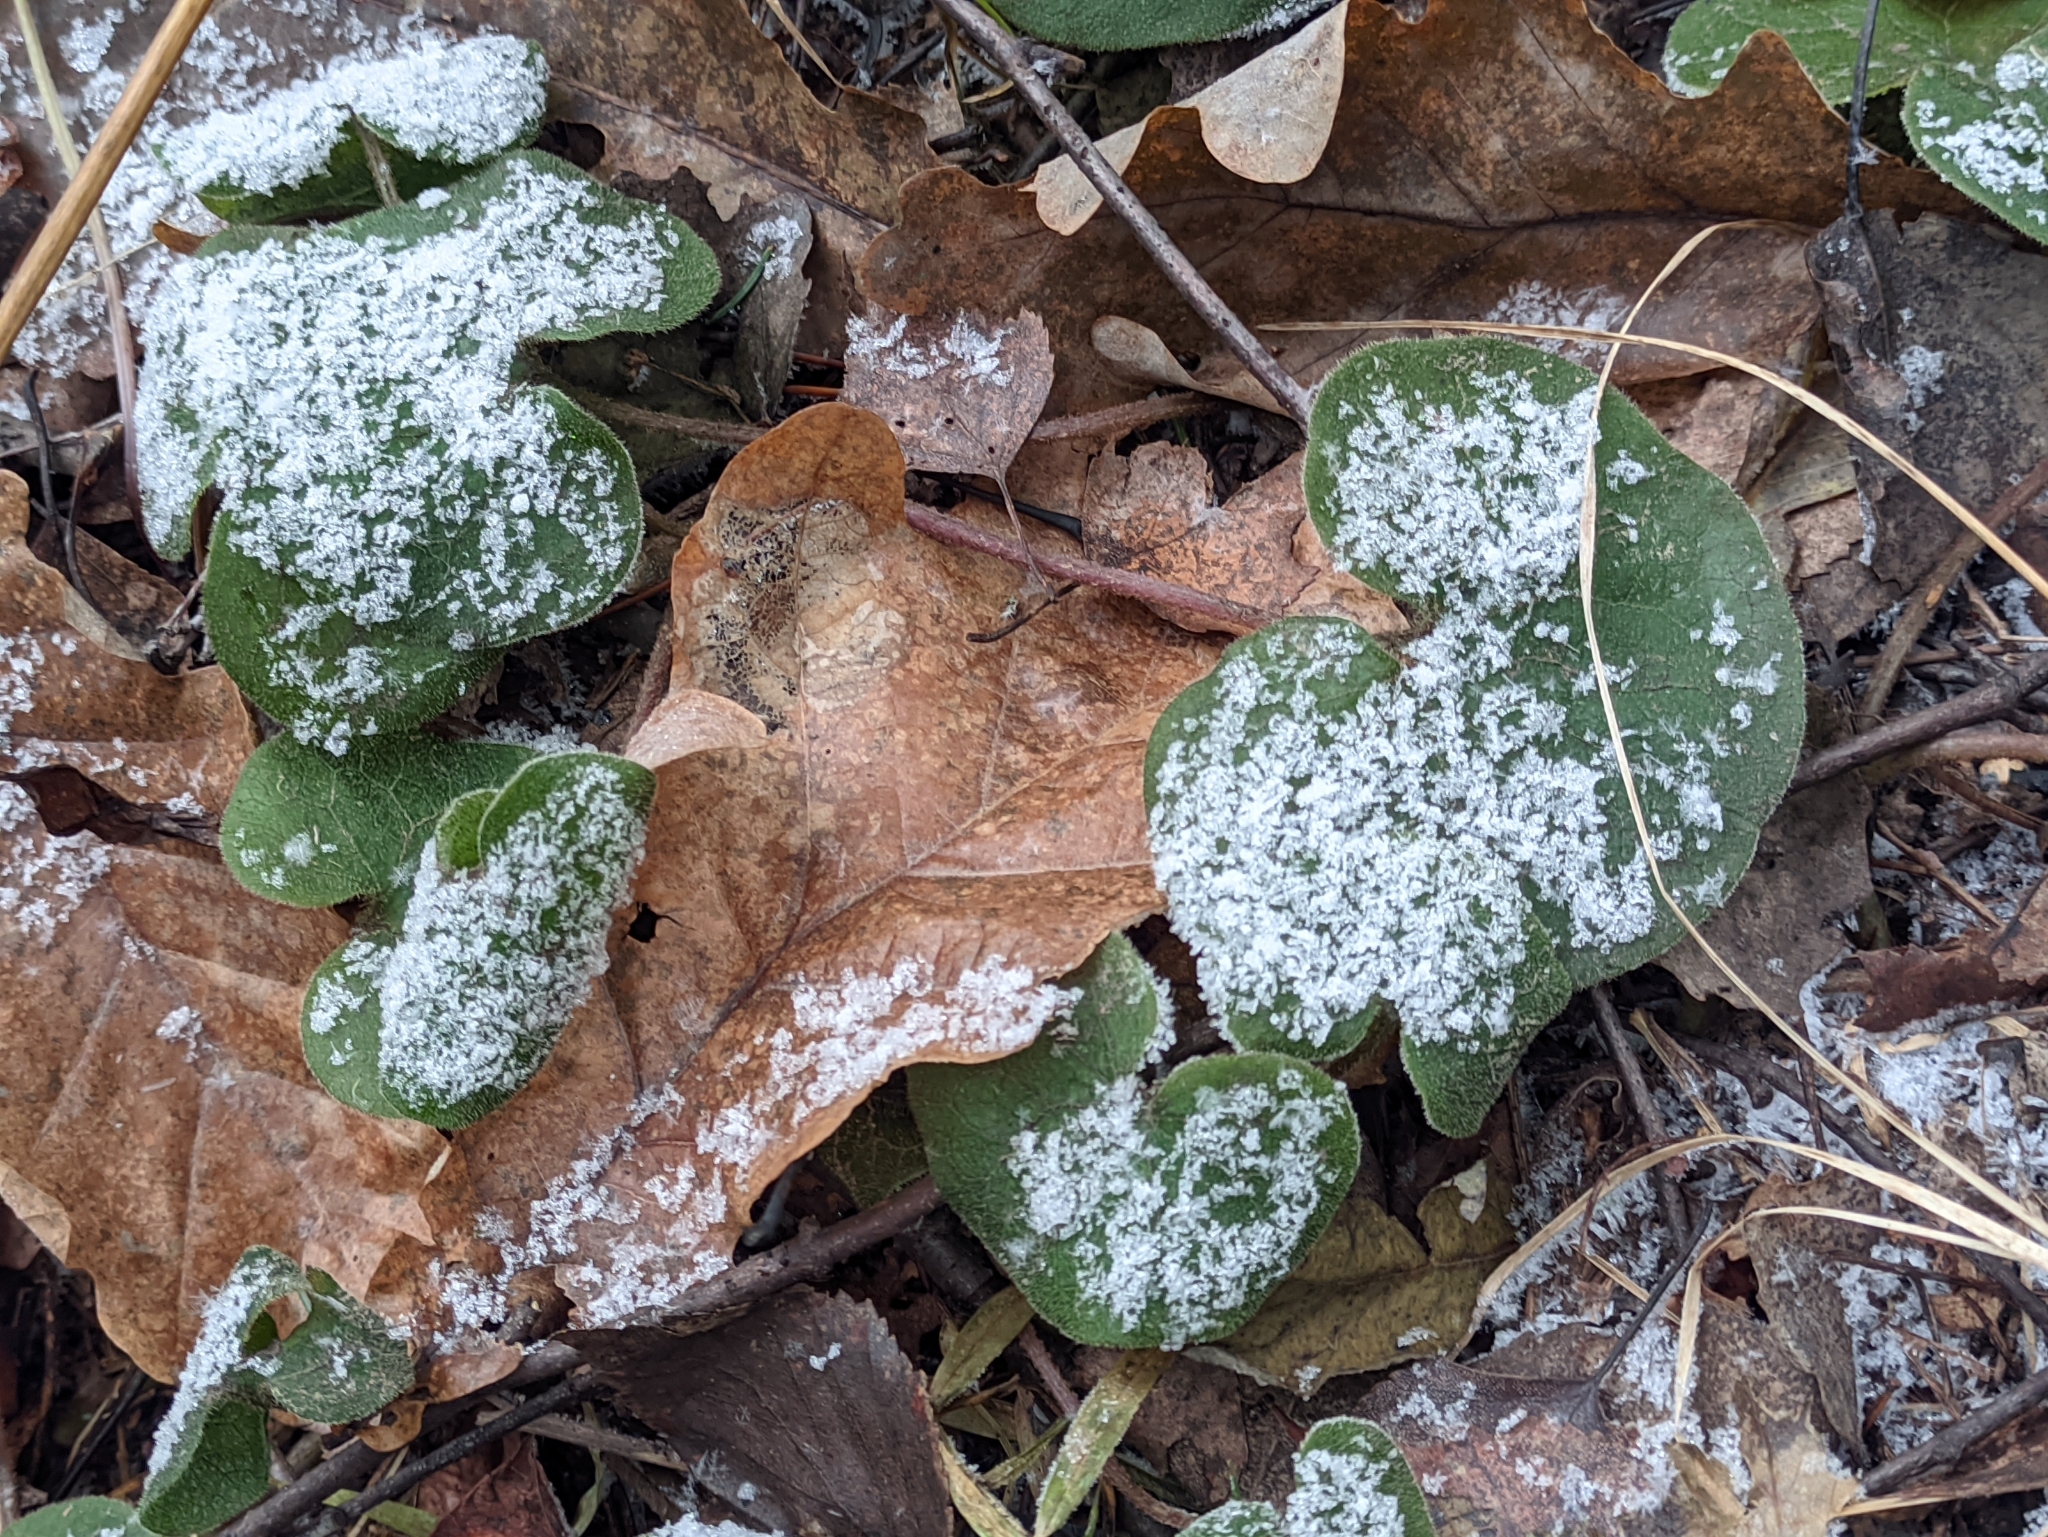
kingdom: Plantae
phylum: Tracheophyta
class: Magnoliopsida
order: Piperales
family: Aristolochiaceae
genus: Asarum
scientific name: Asarum europaeum
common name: Asarabacca
